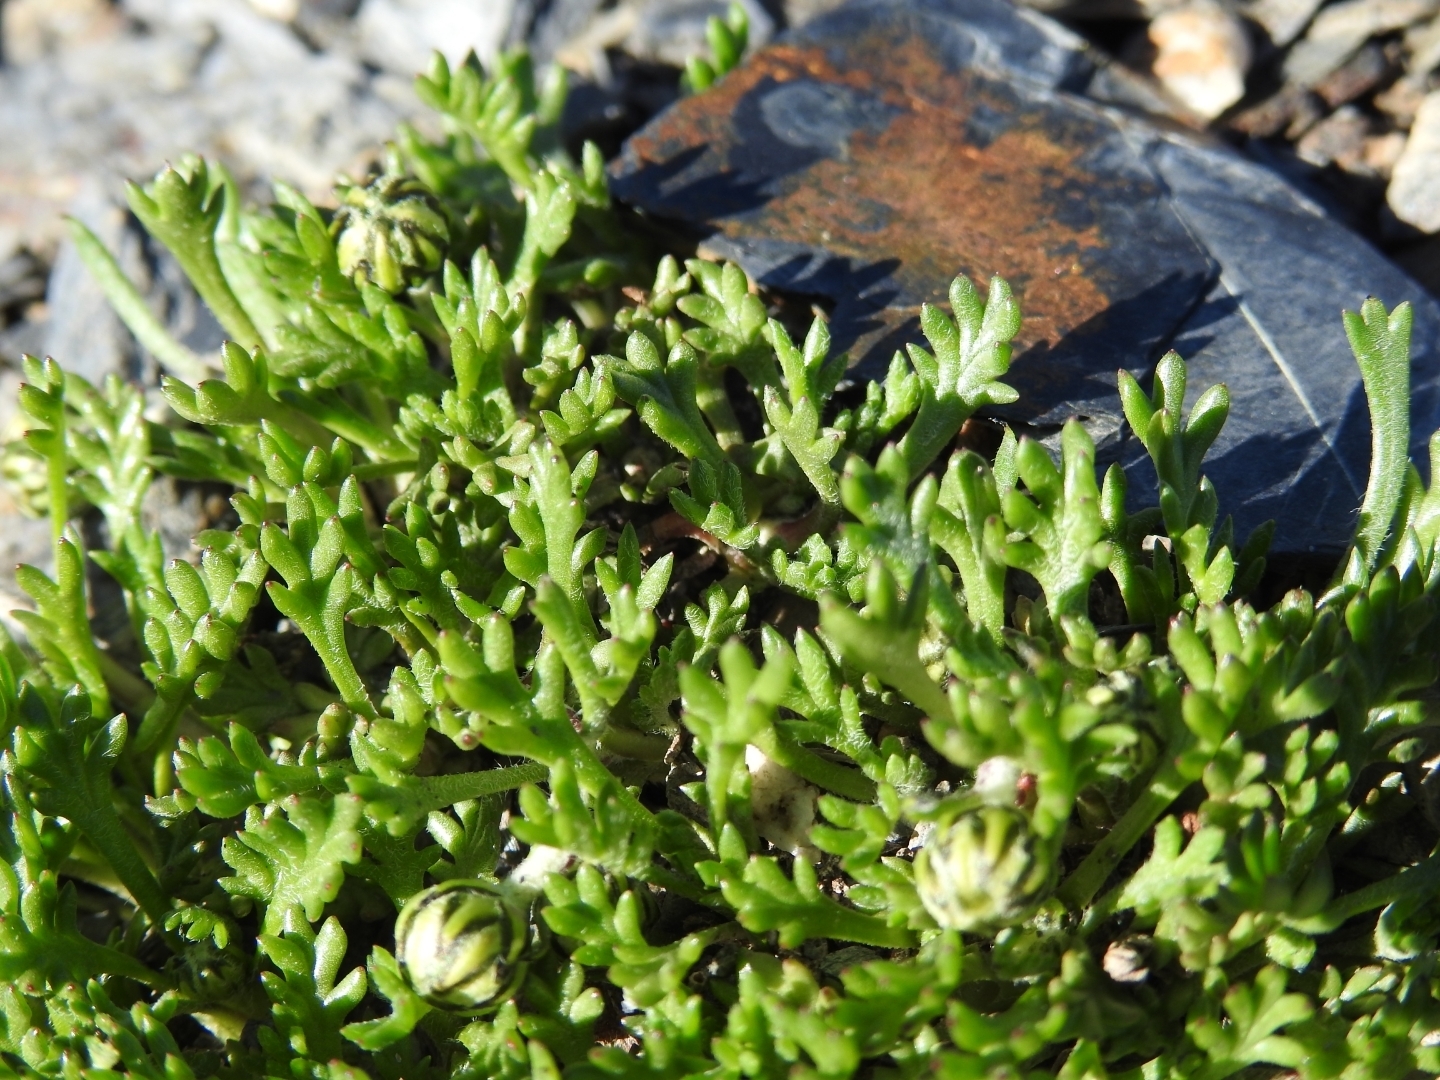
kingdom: Plantae
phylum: Tracheophyta
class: Magnoliopsida
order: Asterales
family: Asteraceae
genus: Leucanthemopsis
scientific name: Leucanthemopsis alpina
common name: Alpine moon daisy
